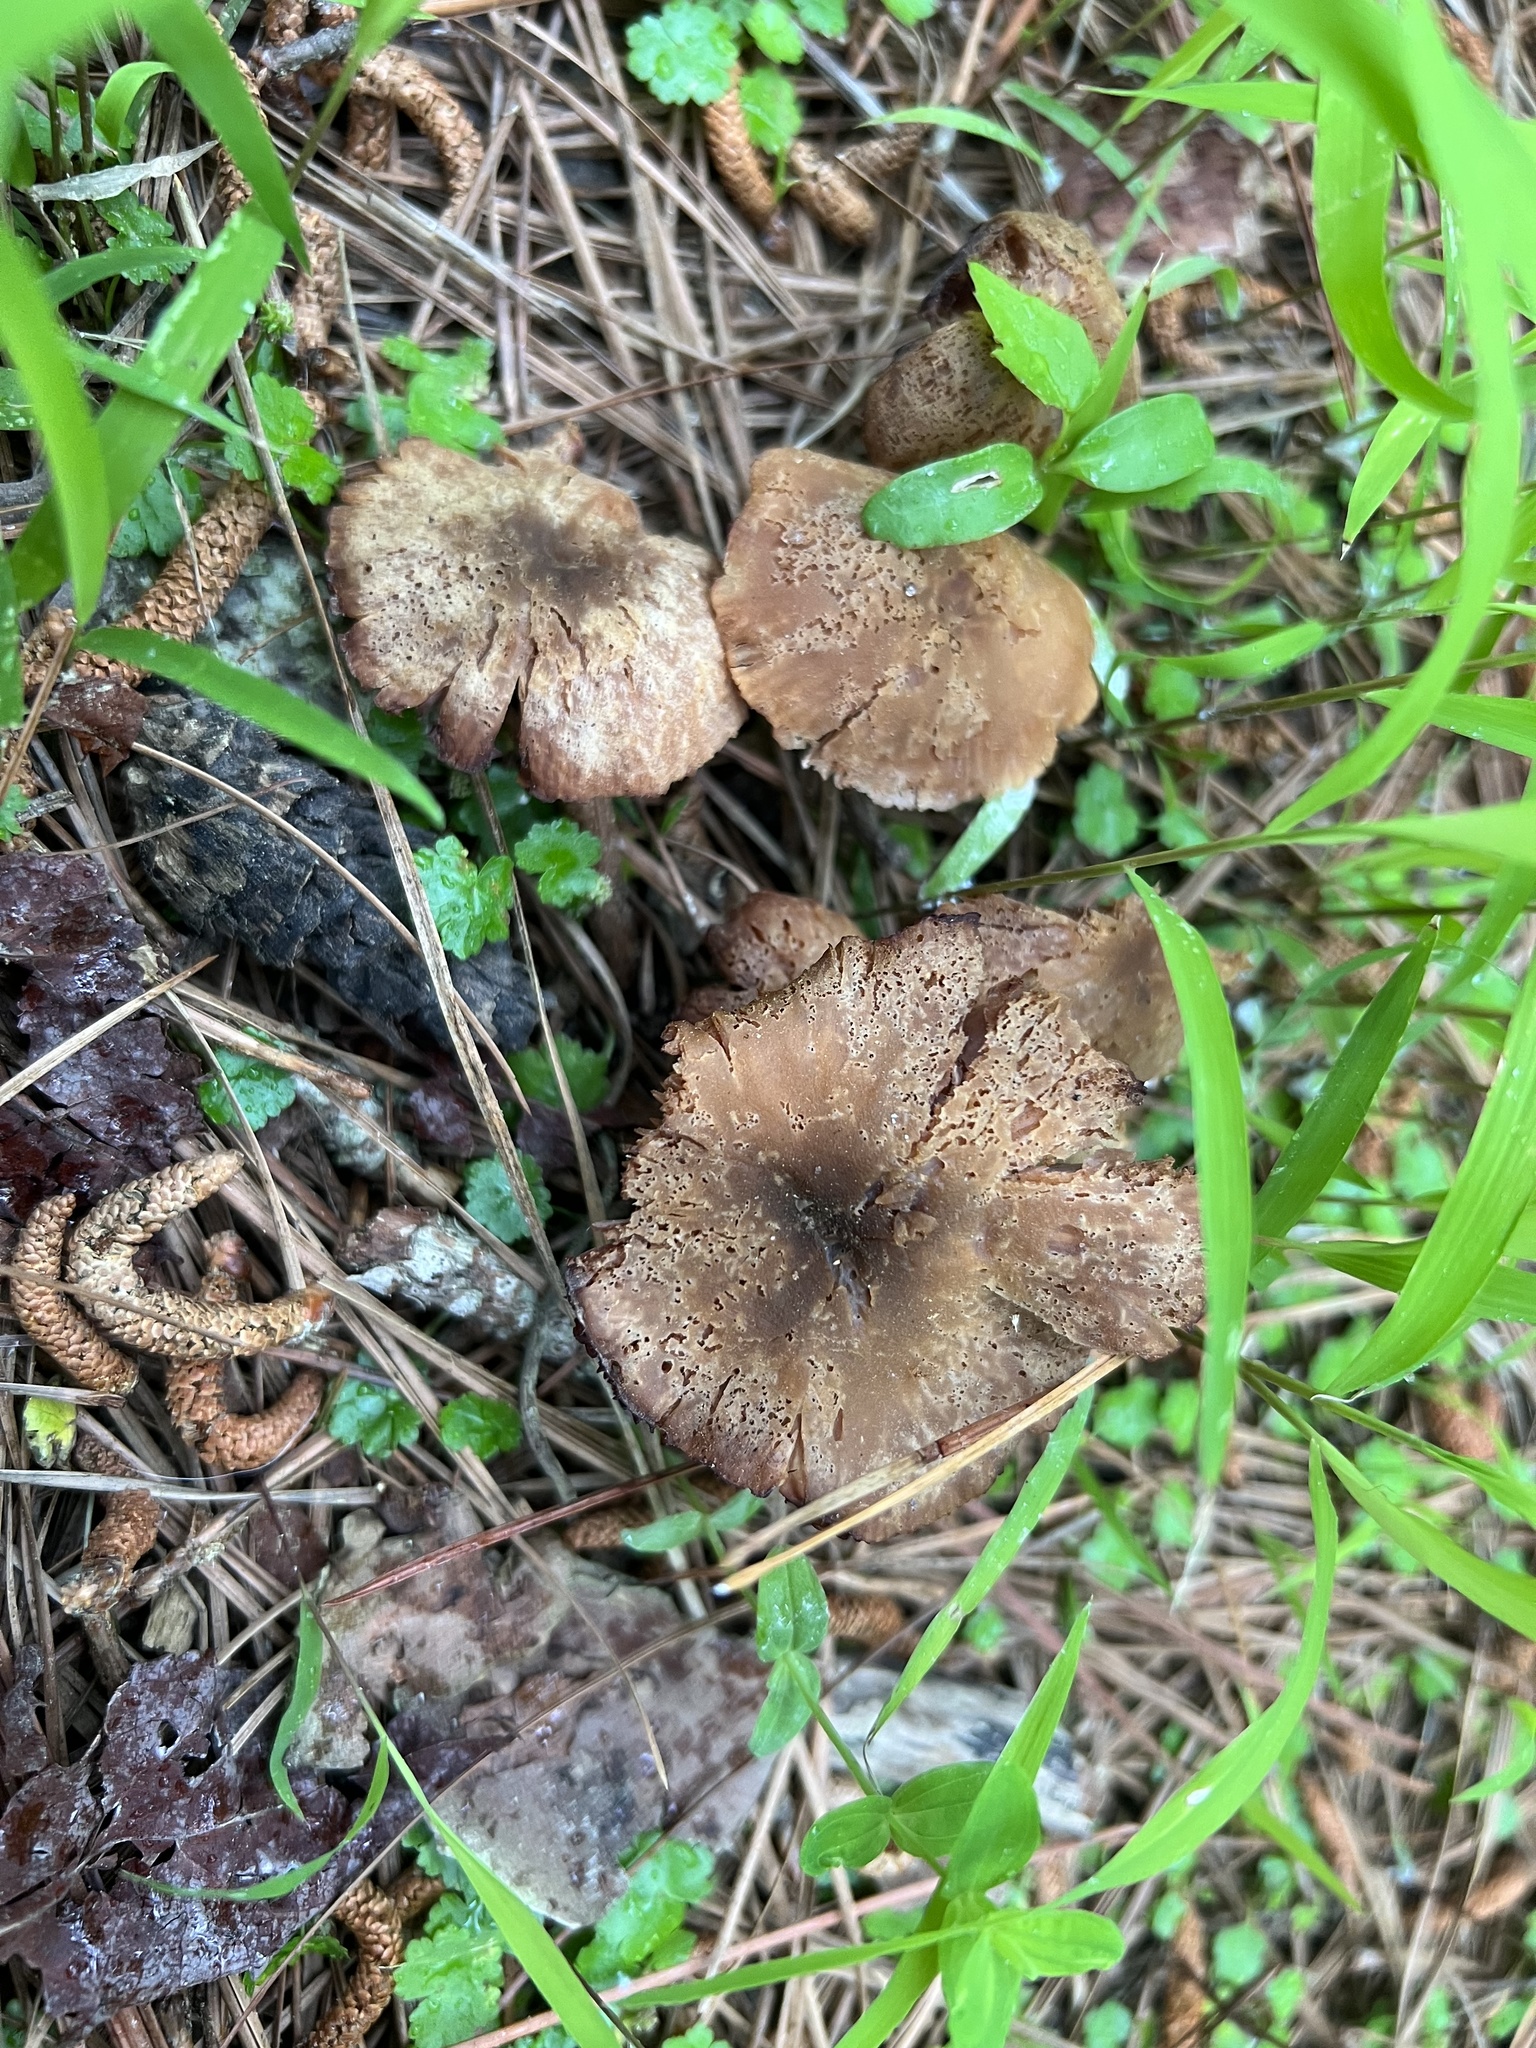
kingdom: Fungi
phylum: Basidiomycota
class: Agaricomycetes
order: Agaricales
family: Hydnangiaceae
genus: Laccaria
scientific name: Laccaria proxima
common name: Scurfy deceiver
